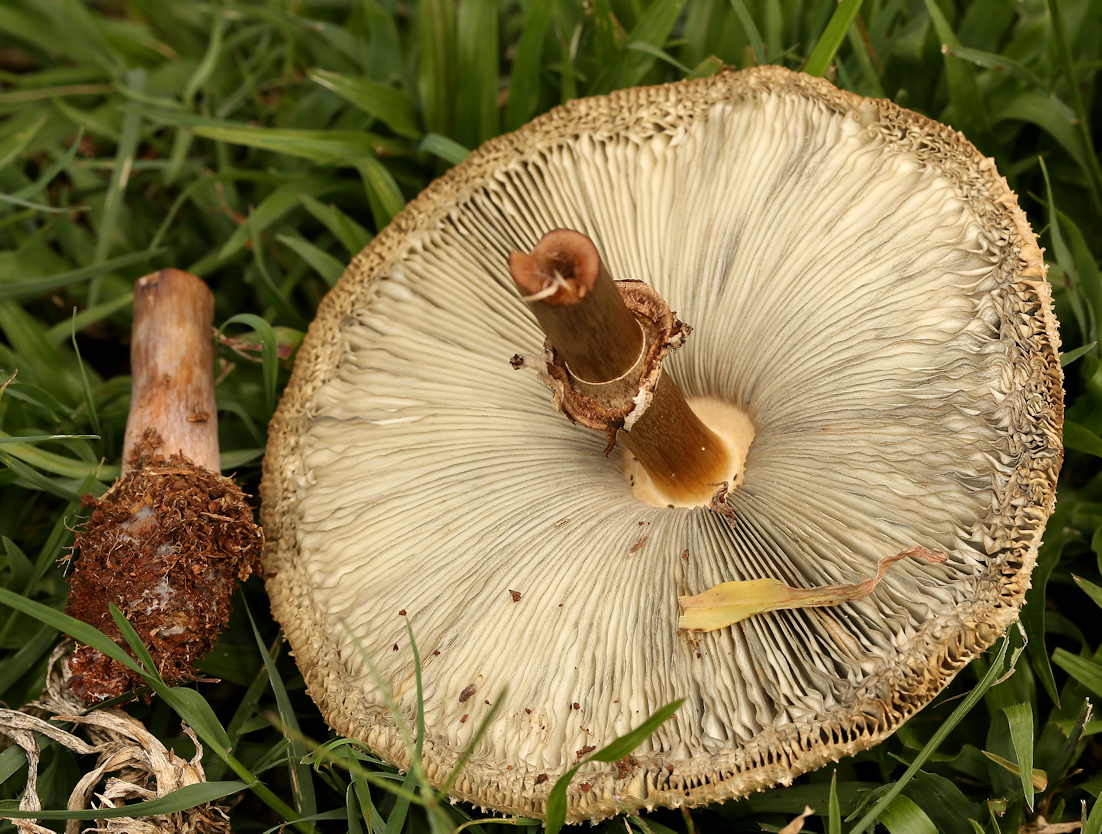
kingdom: Fungi
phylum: Basidiomycota
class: Agaricomycetes
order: Agaricales
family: Agaricaceae
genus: Chlorophyllum
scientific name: Chlorophyllum molybdites
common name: False parasol
